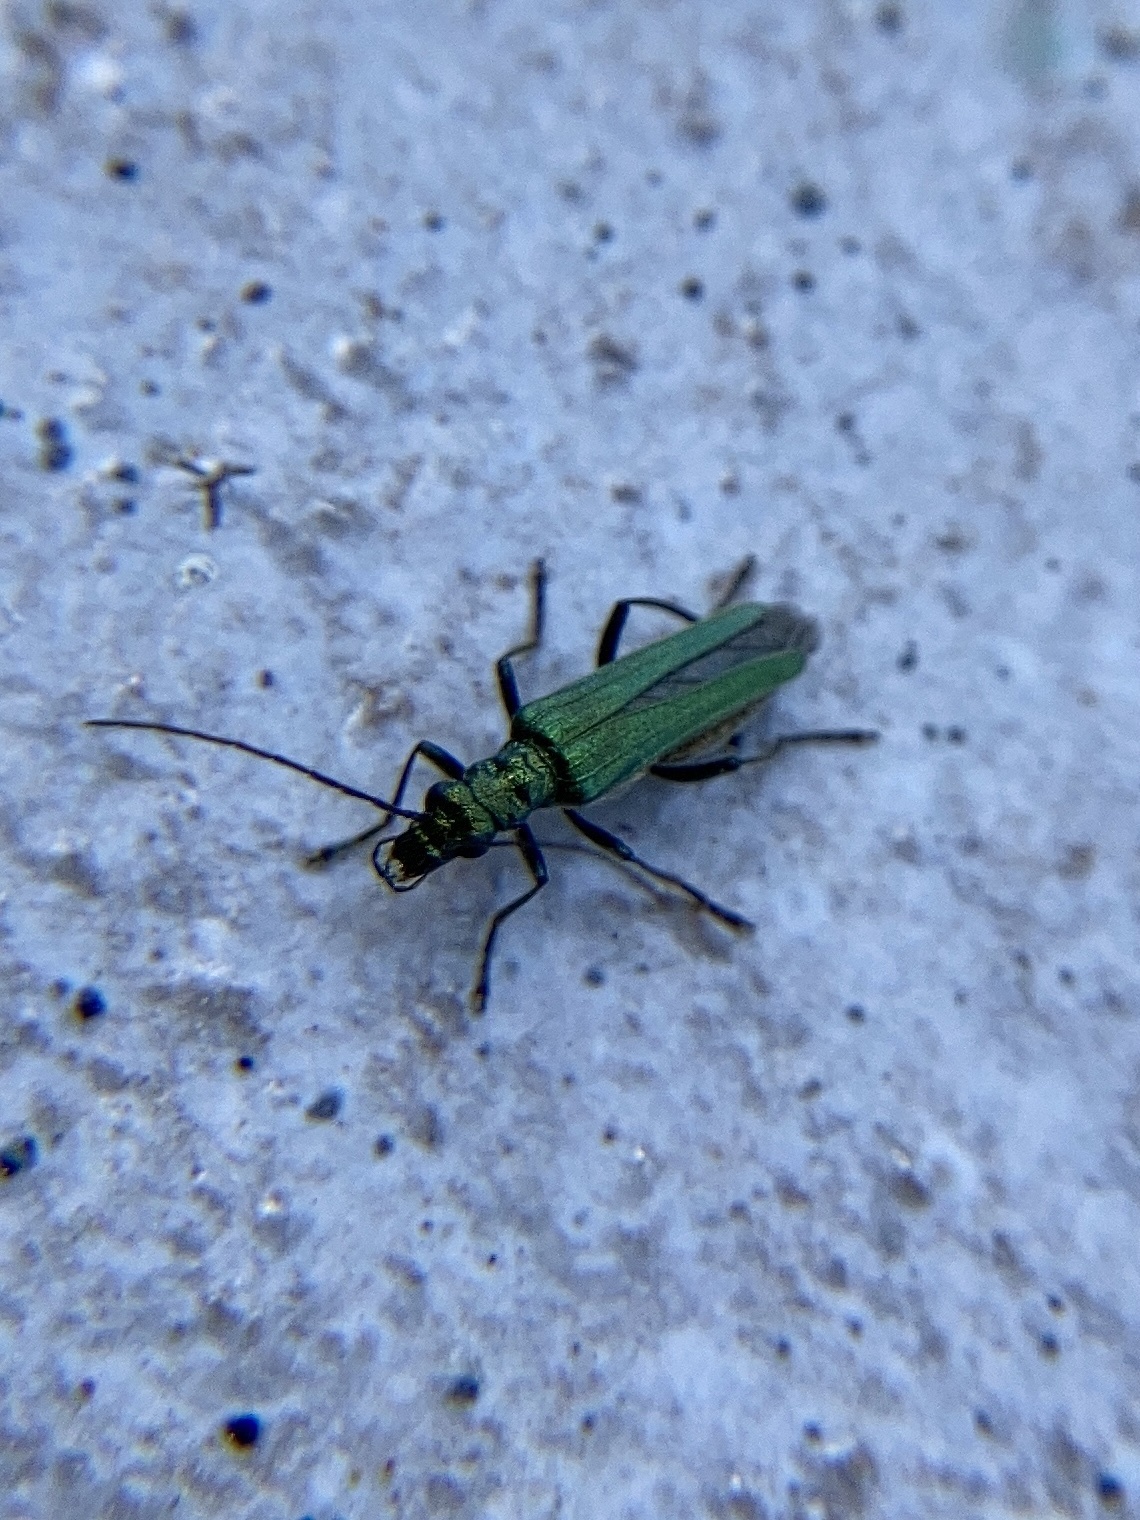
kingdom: Animalia
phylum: Arthropoda
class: Insecta
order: Coleoptera
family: Oedemeridae
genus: Oedemera
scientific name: Oedemera nobilis
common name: Swollen-thighed beetle
